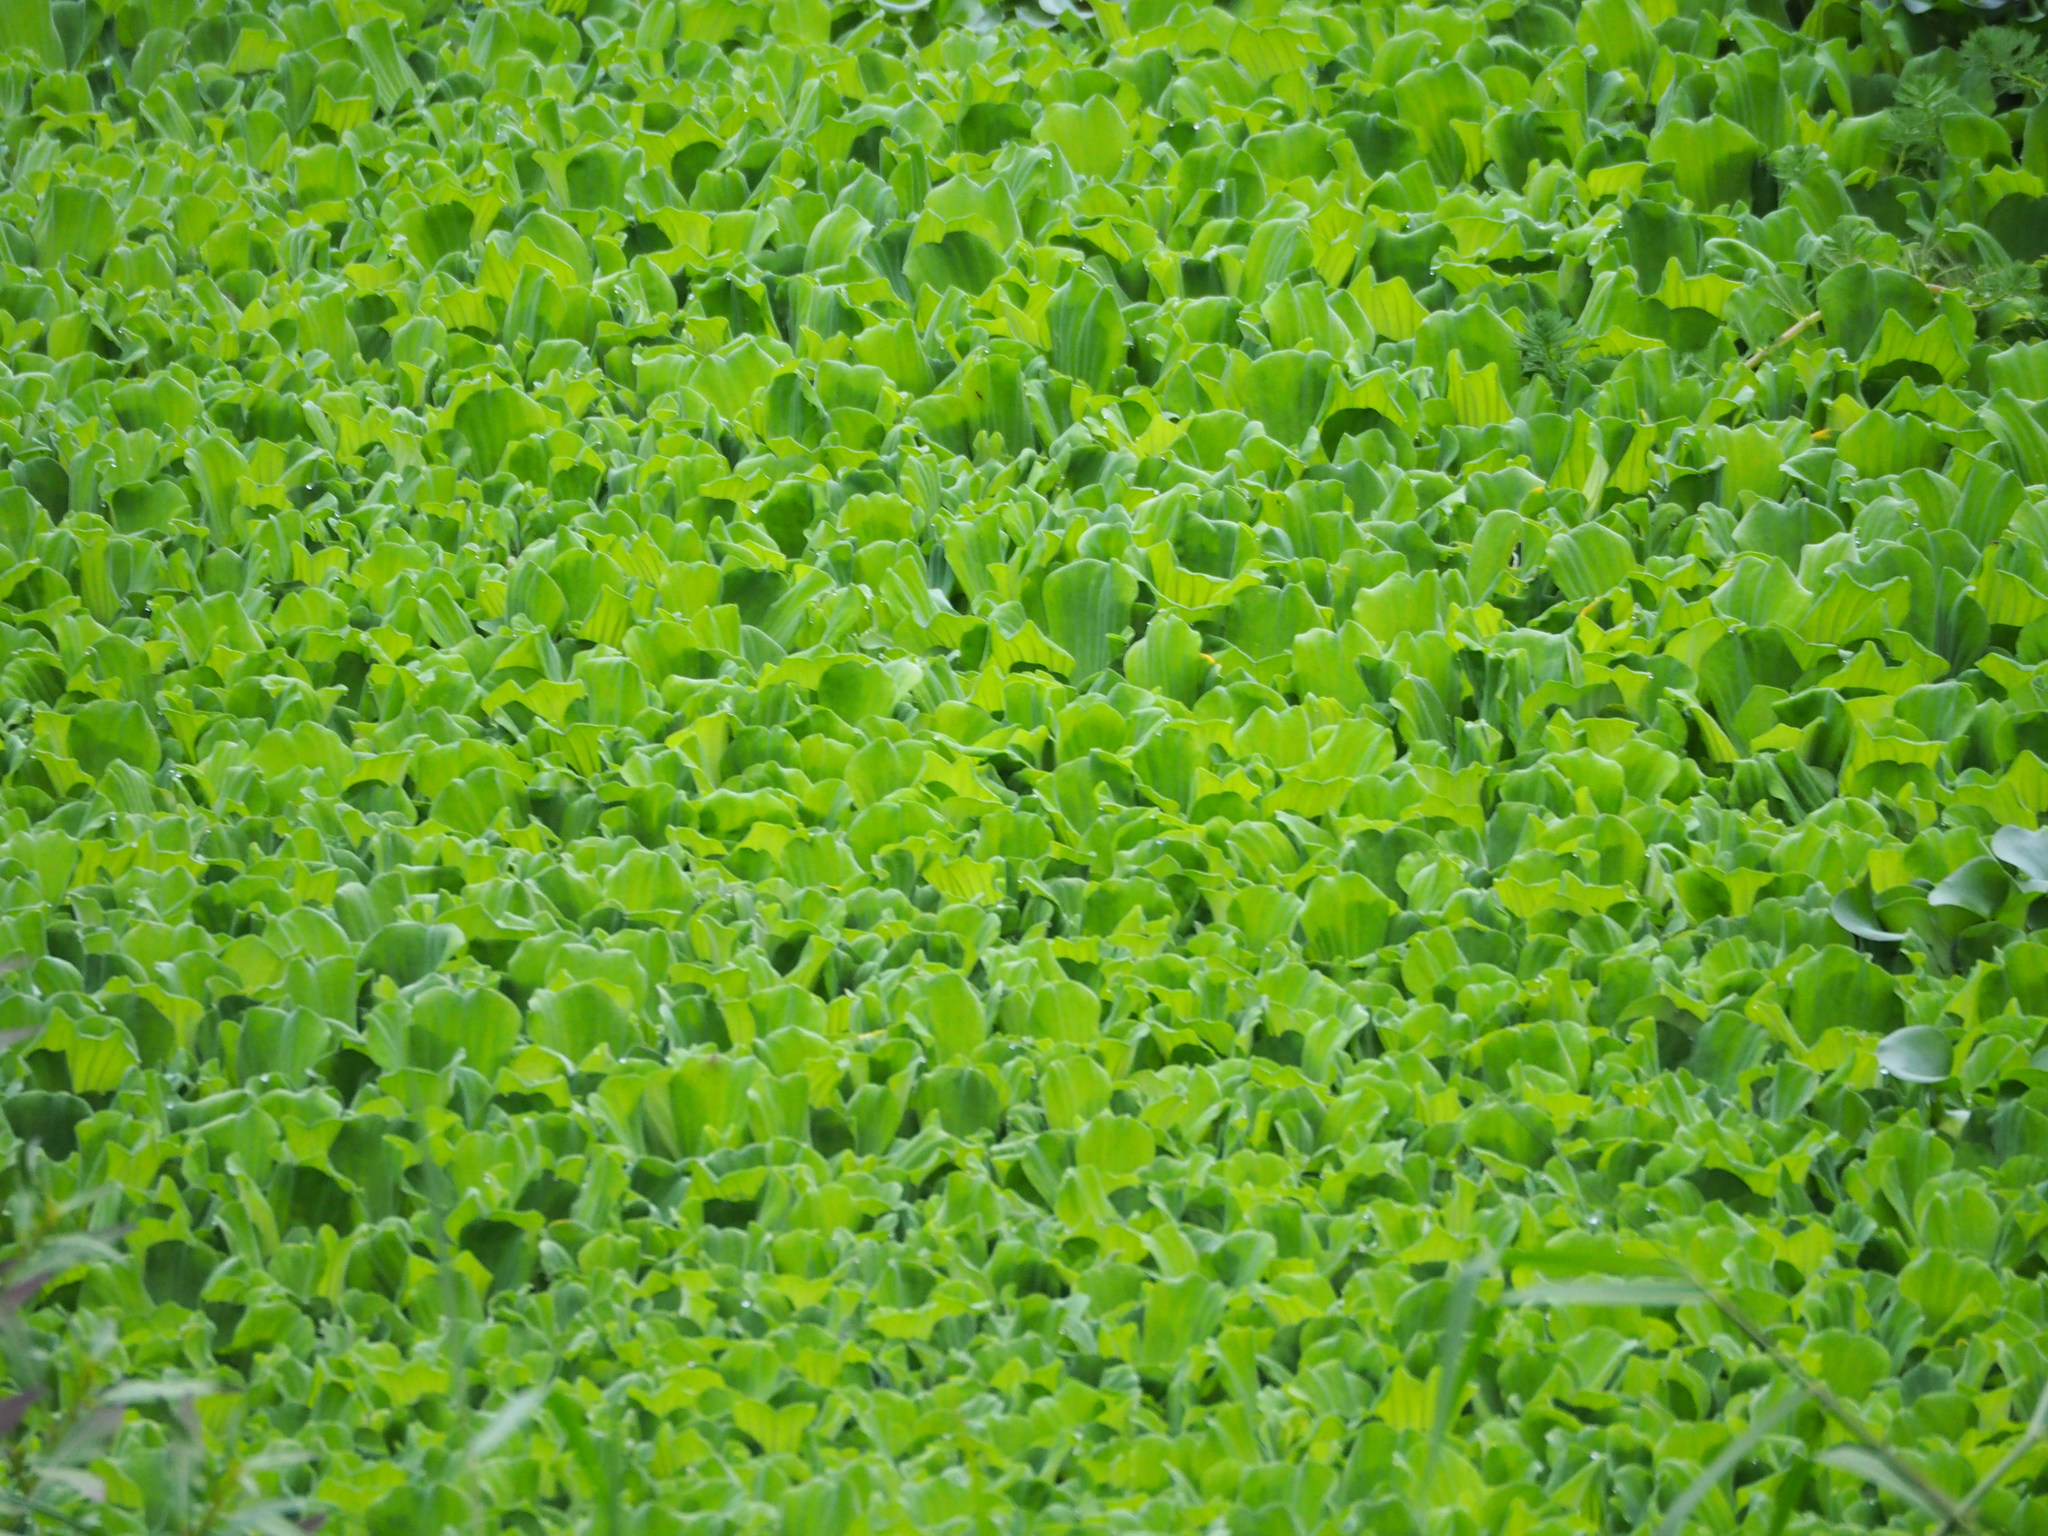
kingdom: Plantae
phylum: Tracheophyta
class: Liliopsida
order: Alismatales
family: Araceae
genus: Pistia
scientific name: Pistia stratiotes
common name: Water lettuce
